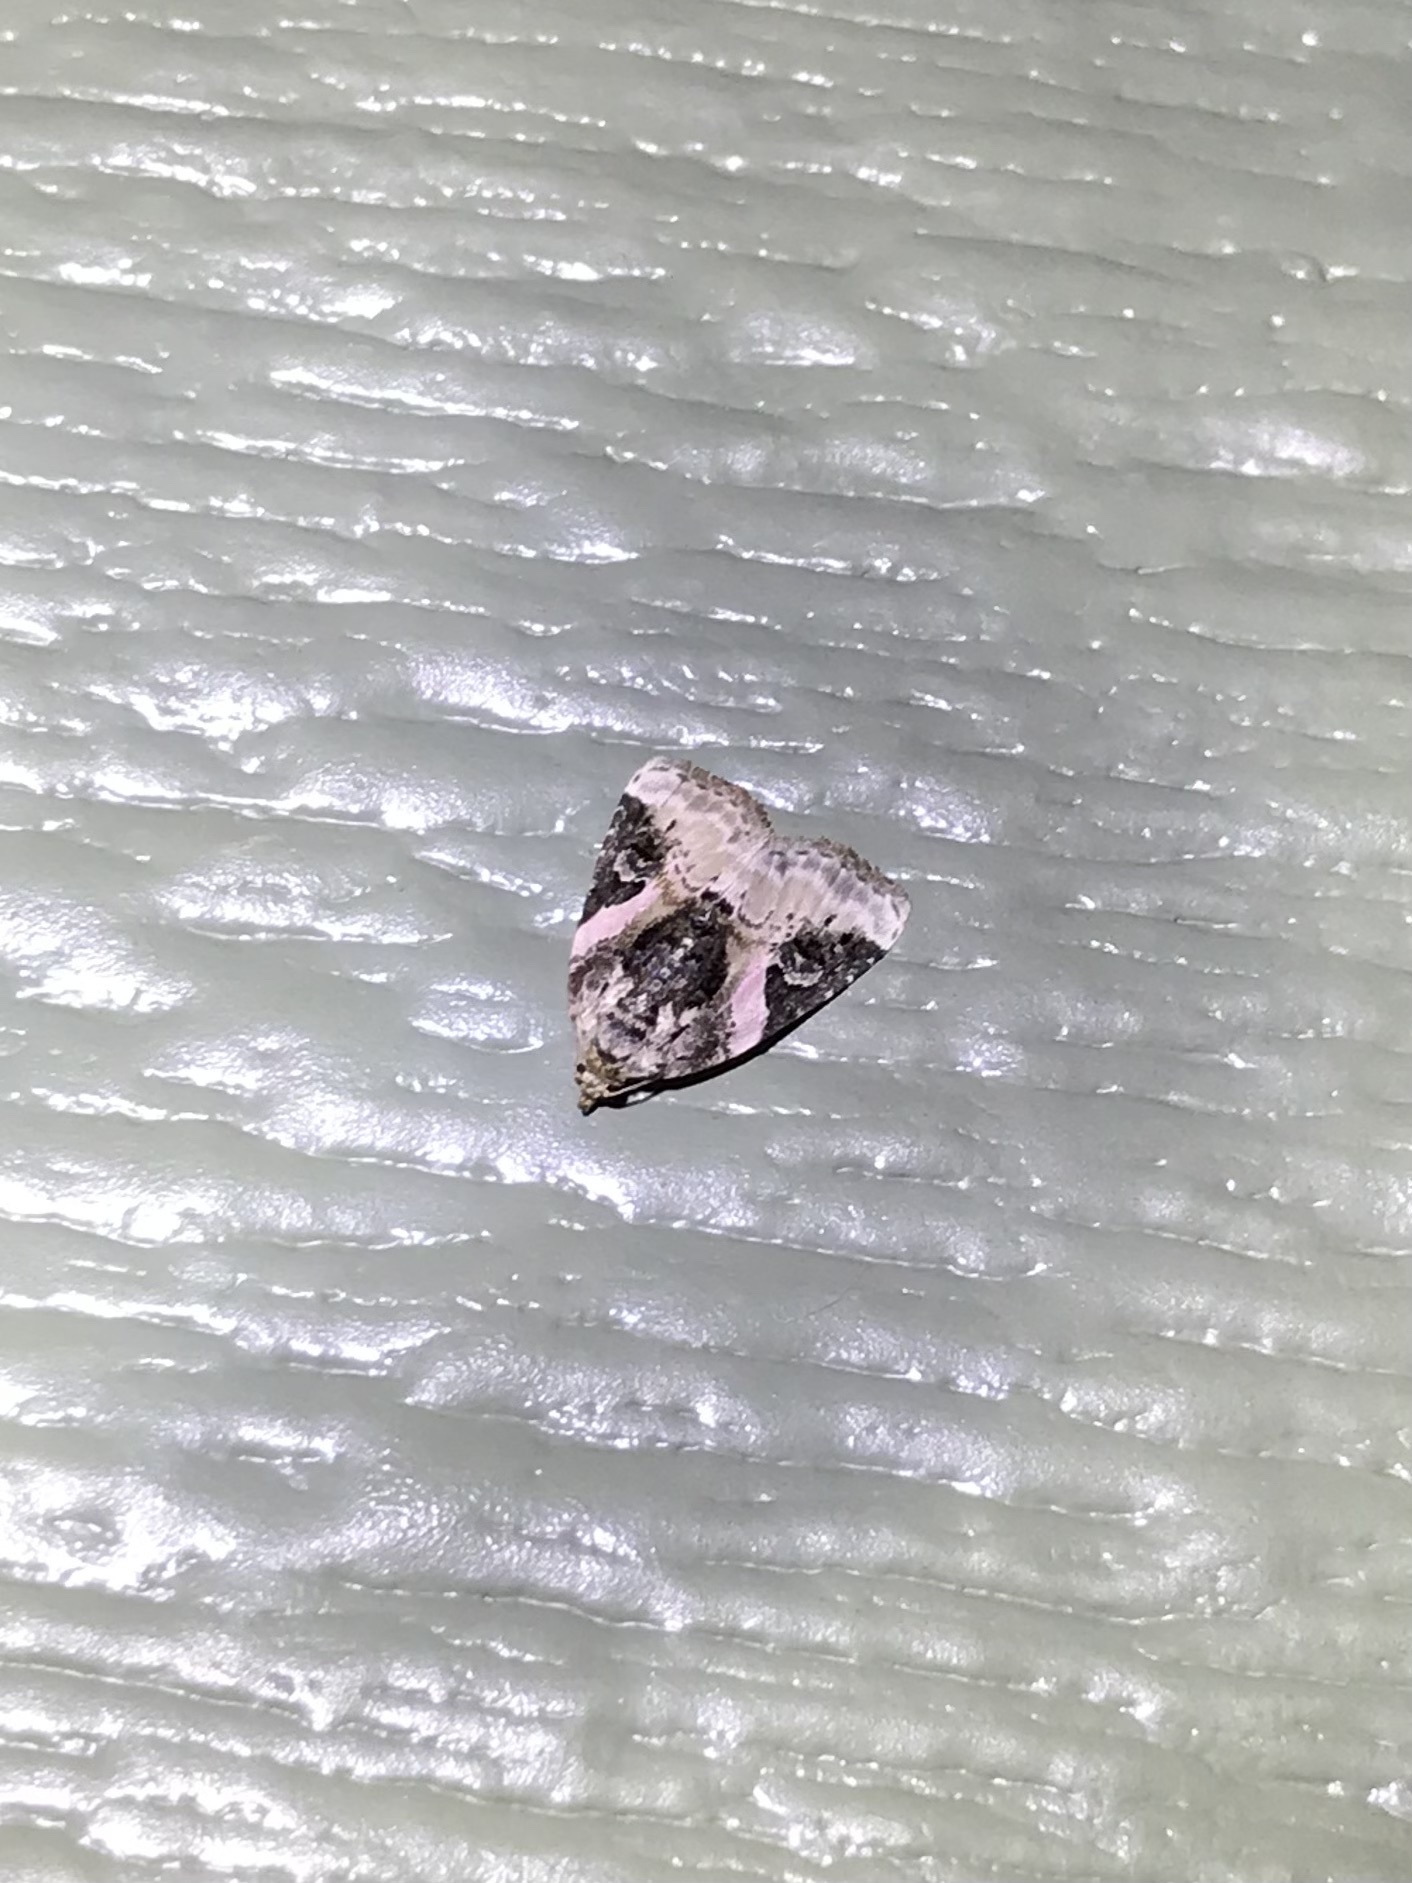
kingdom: Animalia
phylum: Arthropoda
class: Insecta
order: Lepidoptera
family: Noctuidae
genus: Pseudeustrotia
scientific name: Pseudeustrotia carneola
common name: Pink-barred lithacodia moth
